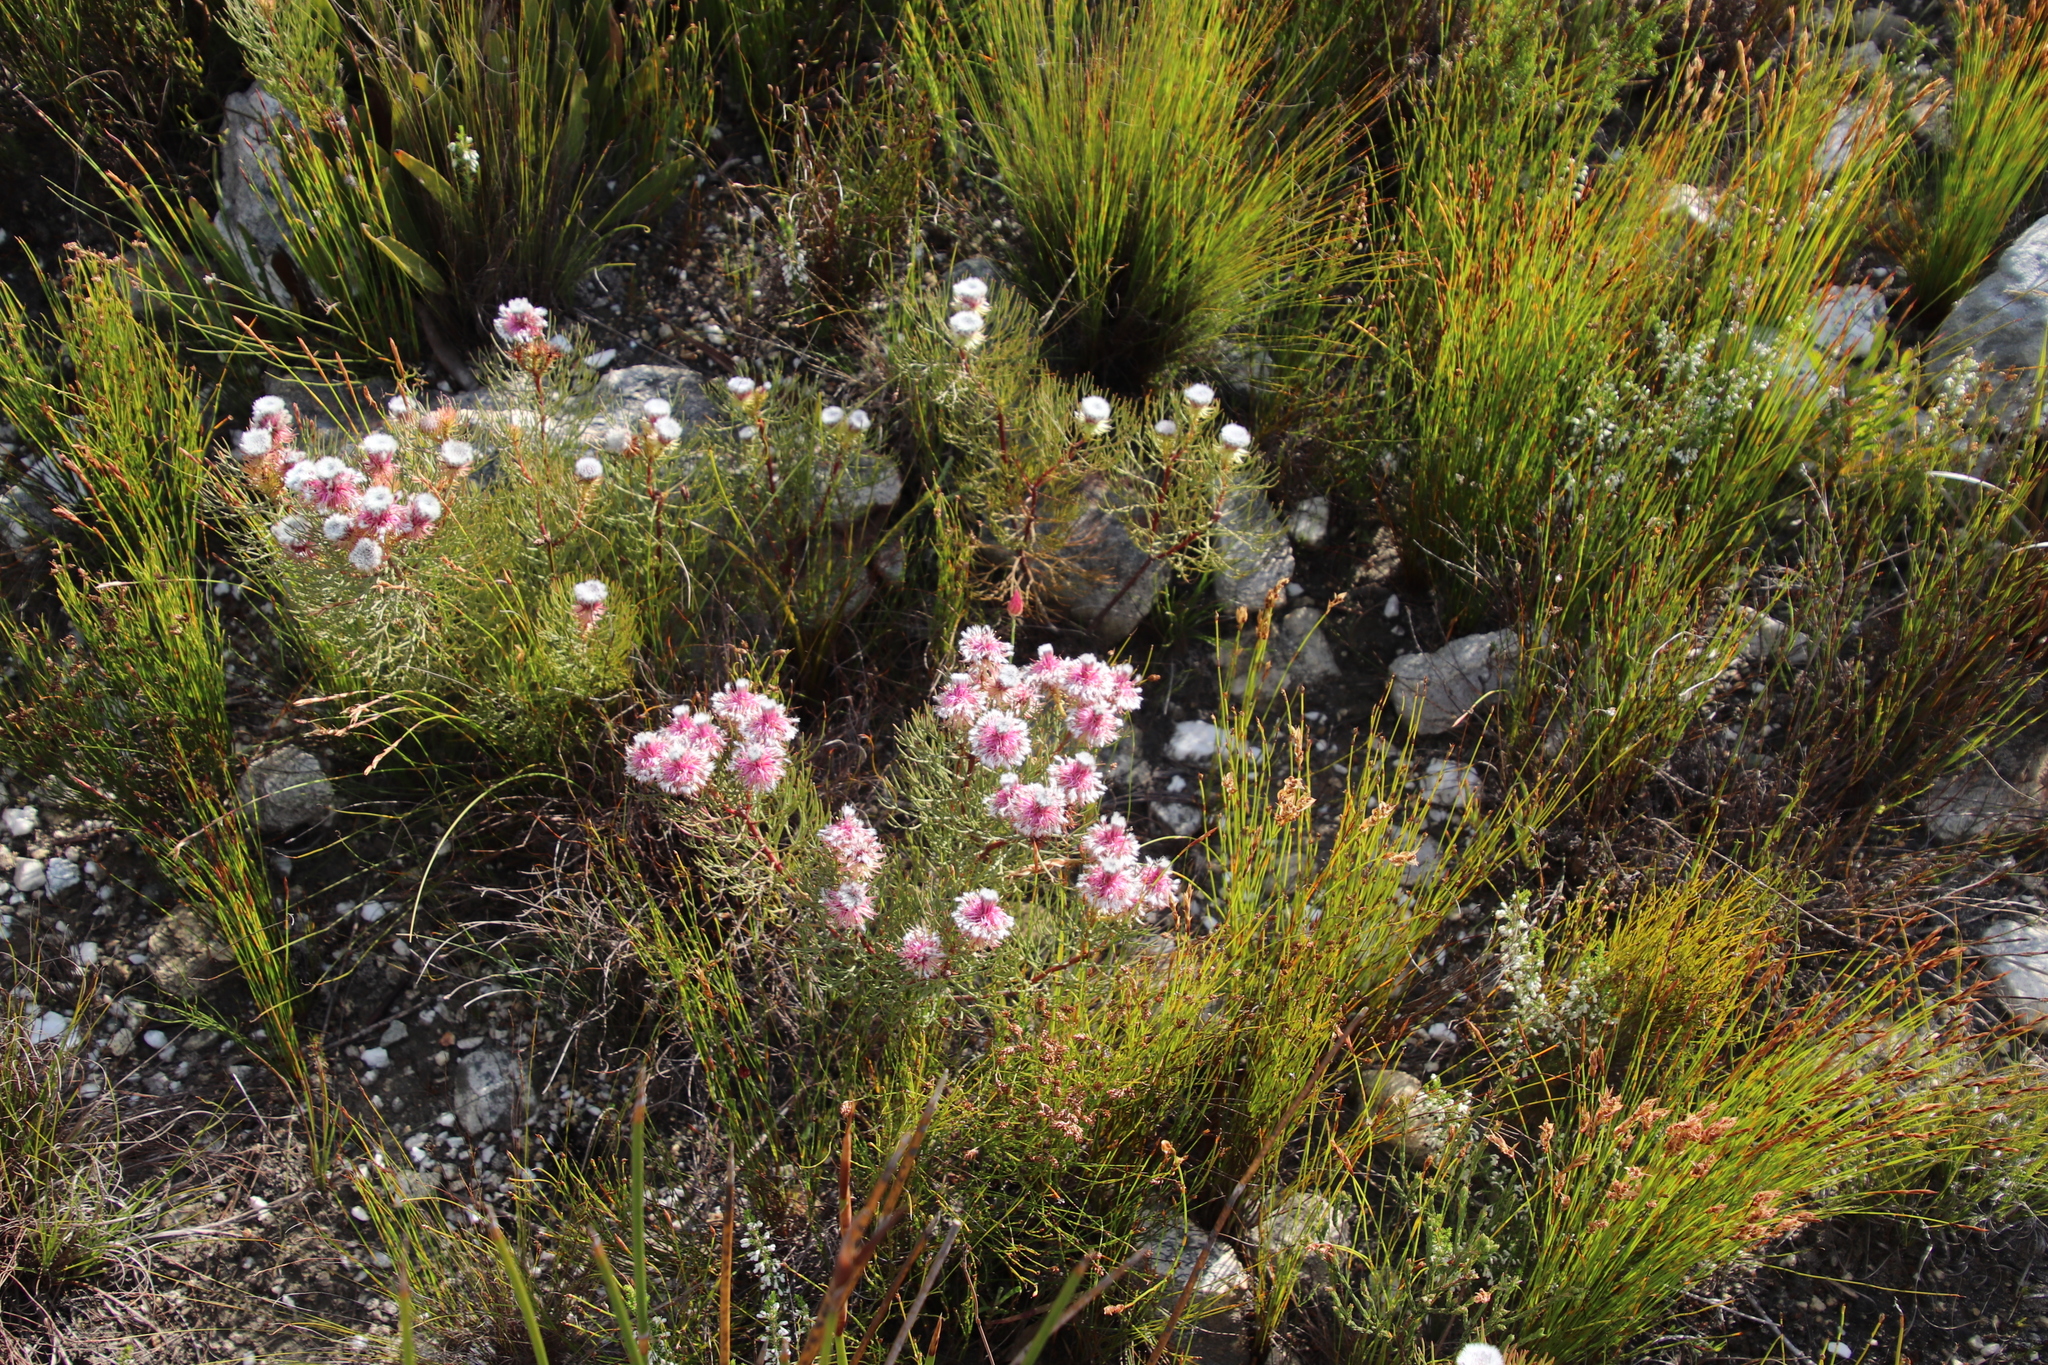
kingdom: Plantae
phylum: Tracheophyta
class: Magnoliopsida
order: Proteales
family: Proteaceae
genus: Serruria
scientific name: Serruria phylicoides
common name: Bearded spiderhead
